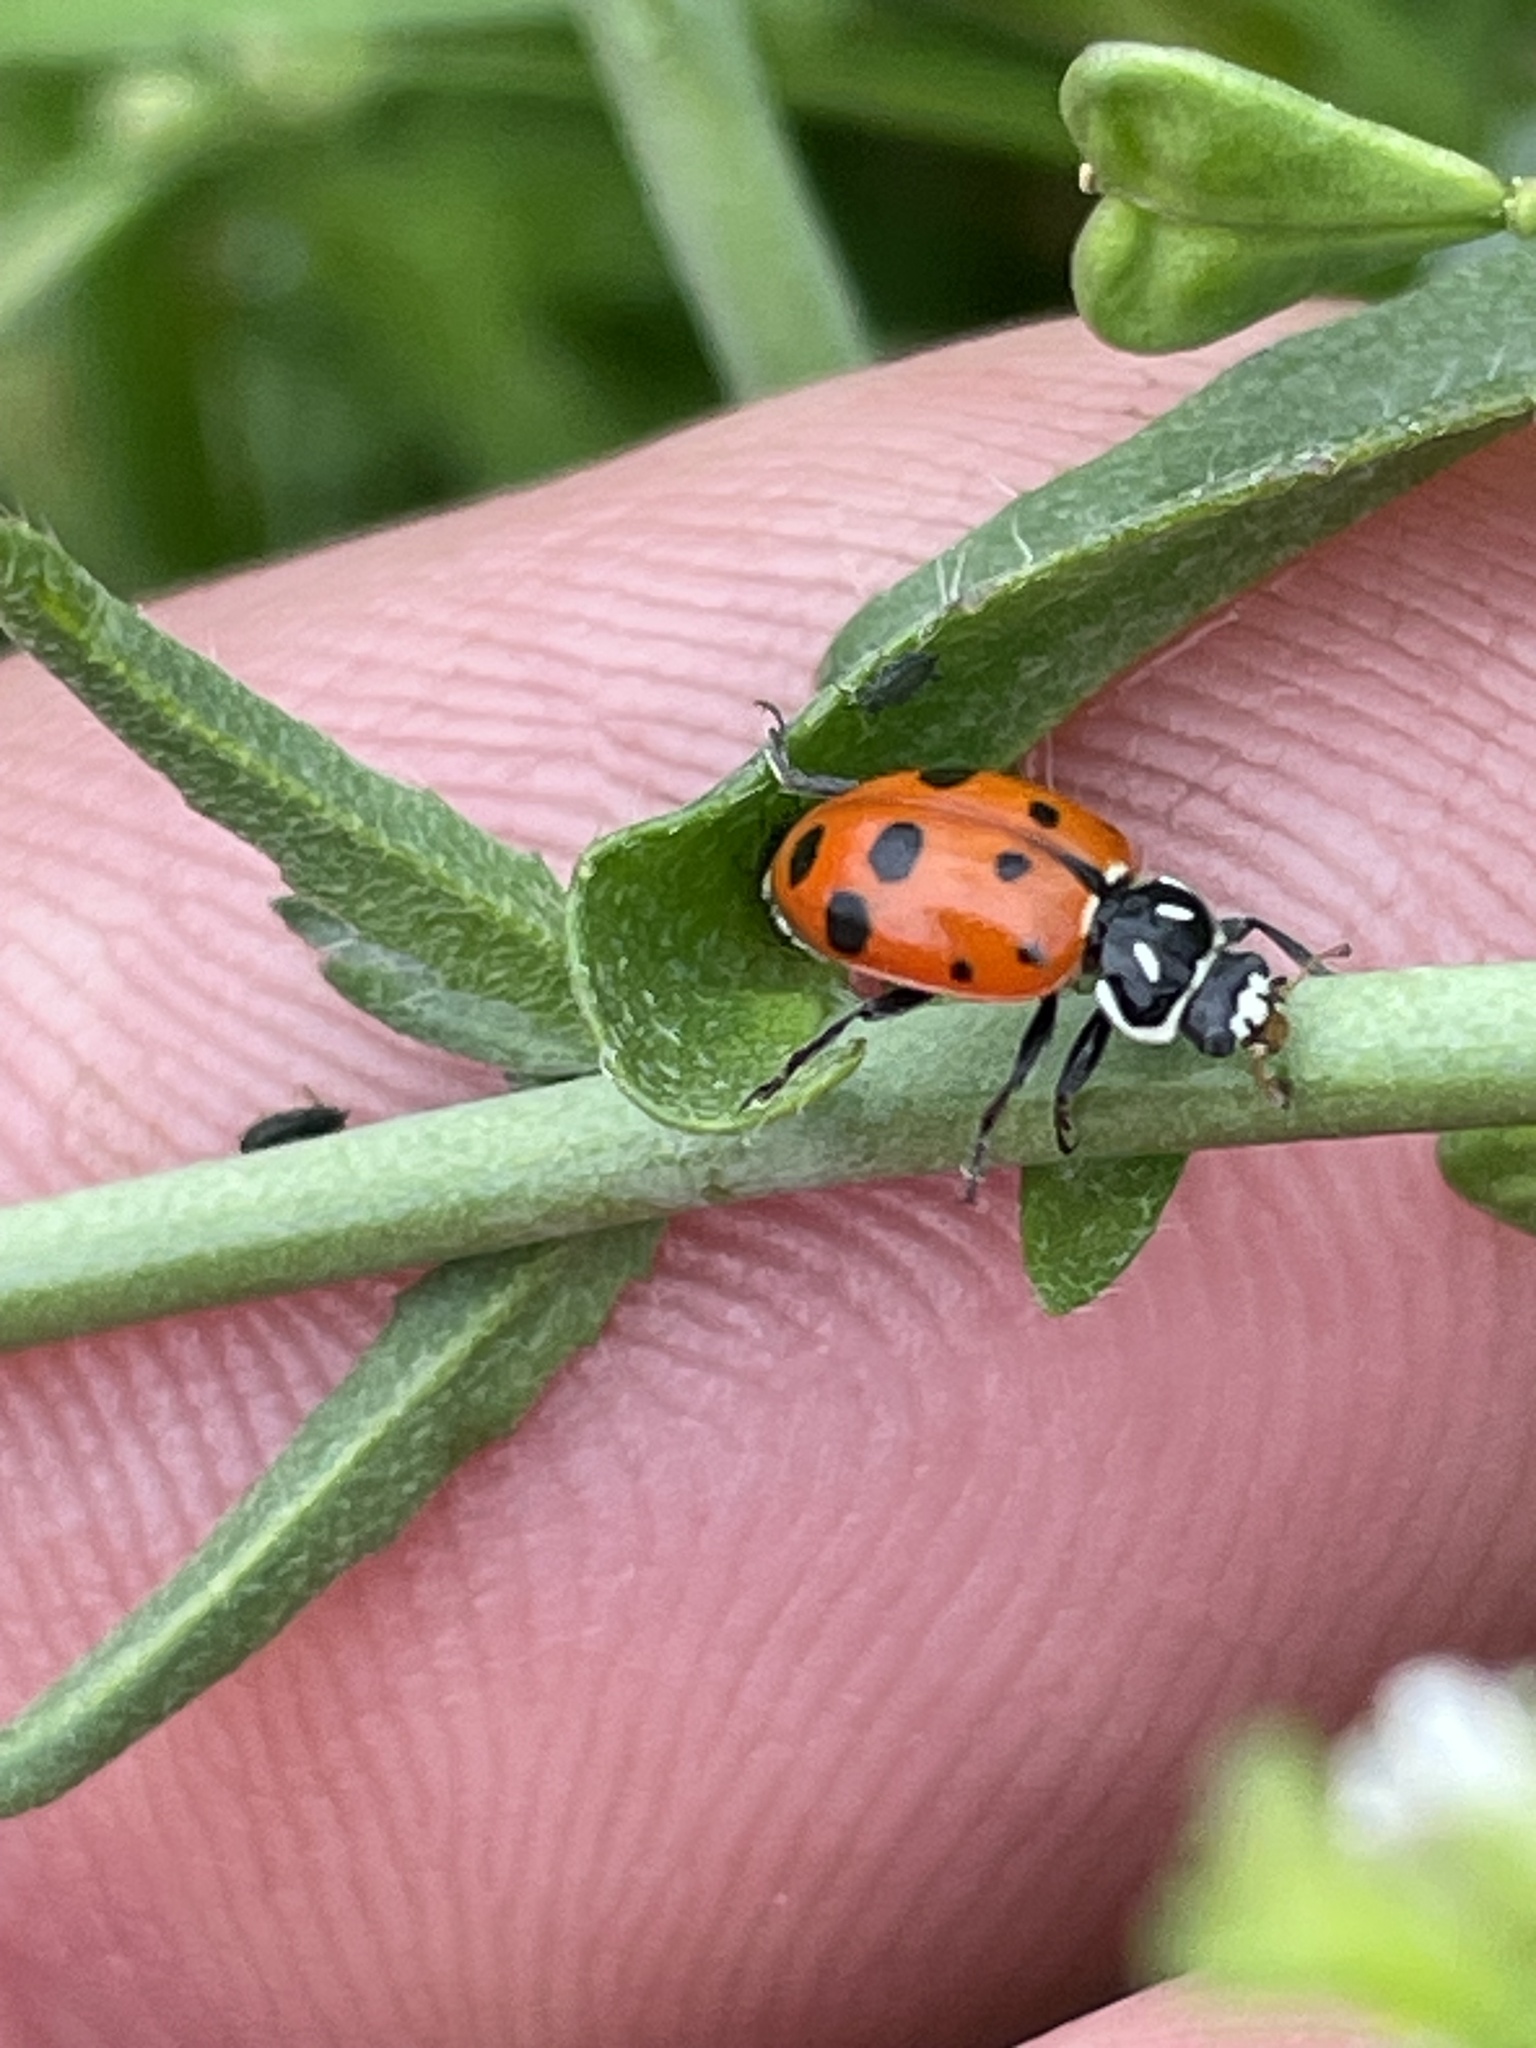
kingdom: Animalia
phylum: Arthropoda
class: Insecta
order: Coleoptera
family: Coccinellidae
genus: Hippodamia
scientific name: Hippodamia convergens
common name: Convergent lady beetle
